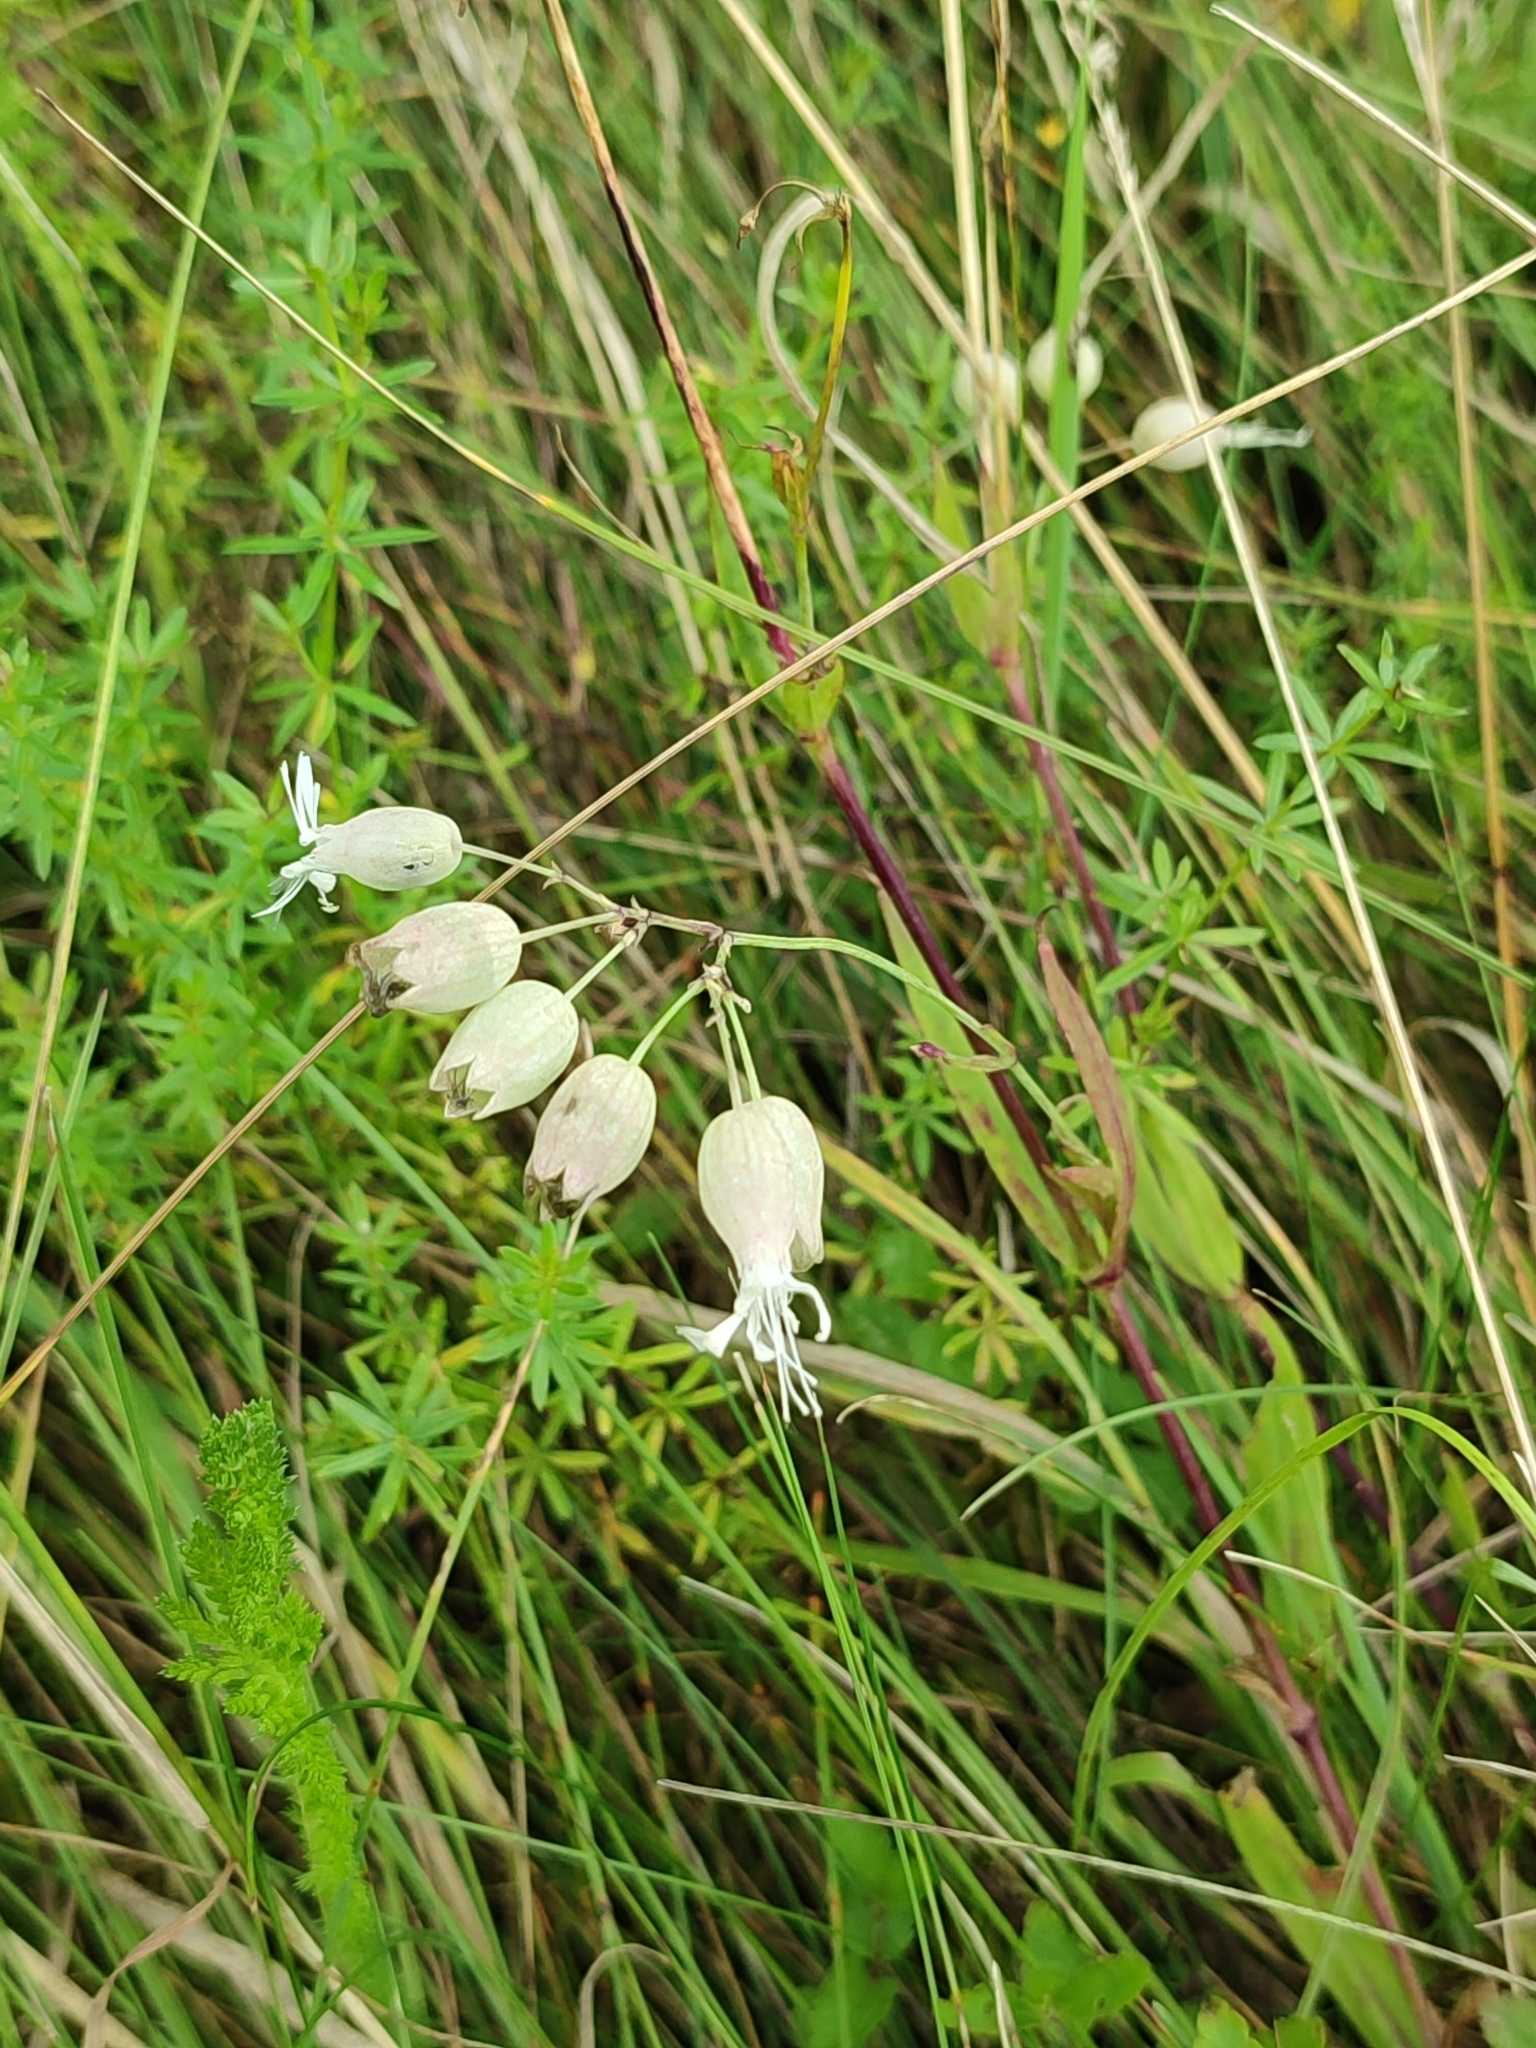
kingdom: Plantae
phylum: Tracheophyta
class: Magnoliopsida
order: Caryophyllales
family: Caryophyllaceae
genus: Silene
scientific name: Silene vulgaris
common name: Bladder campion
